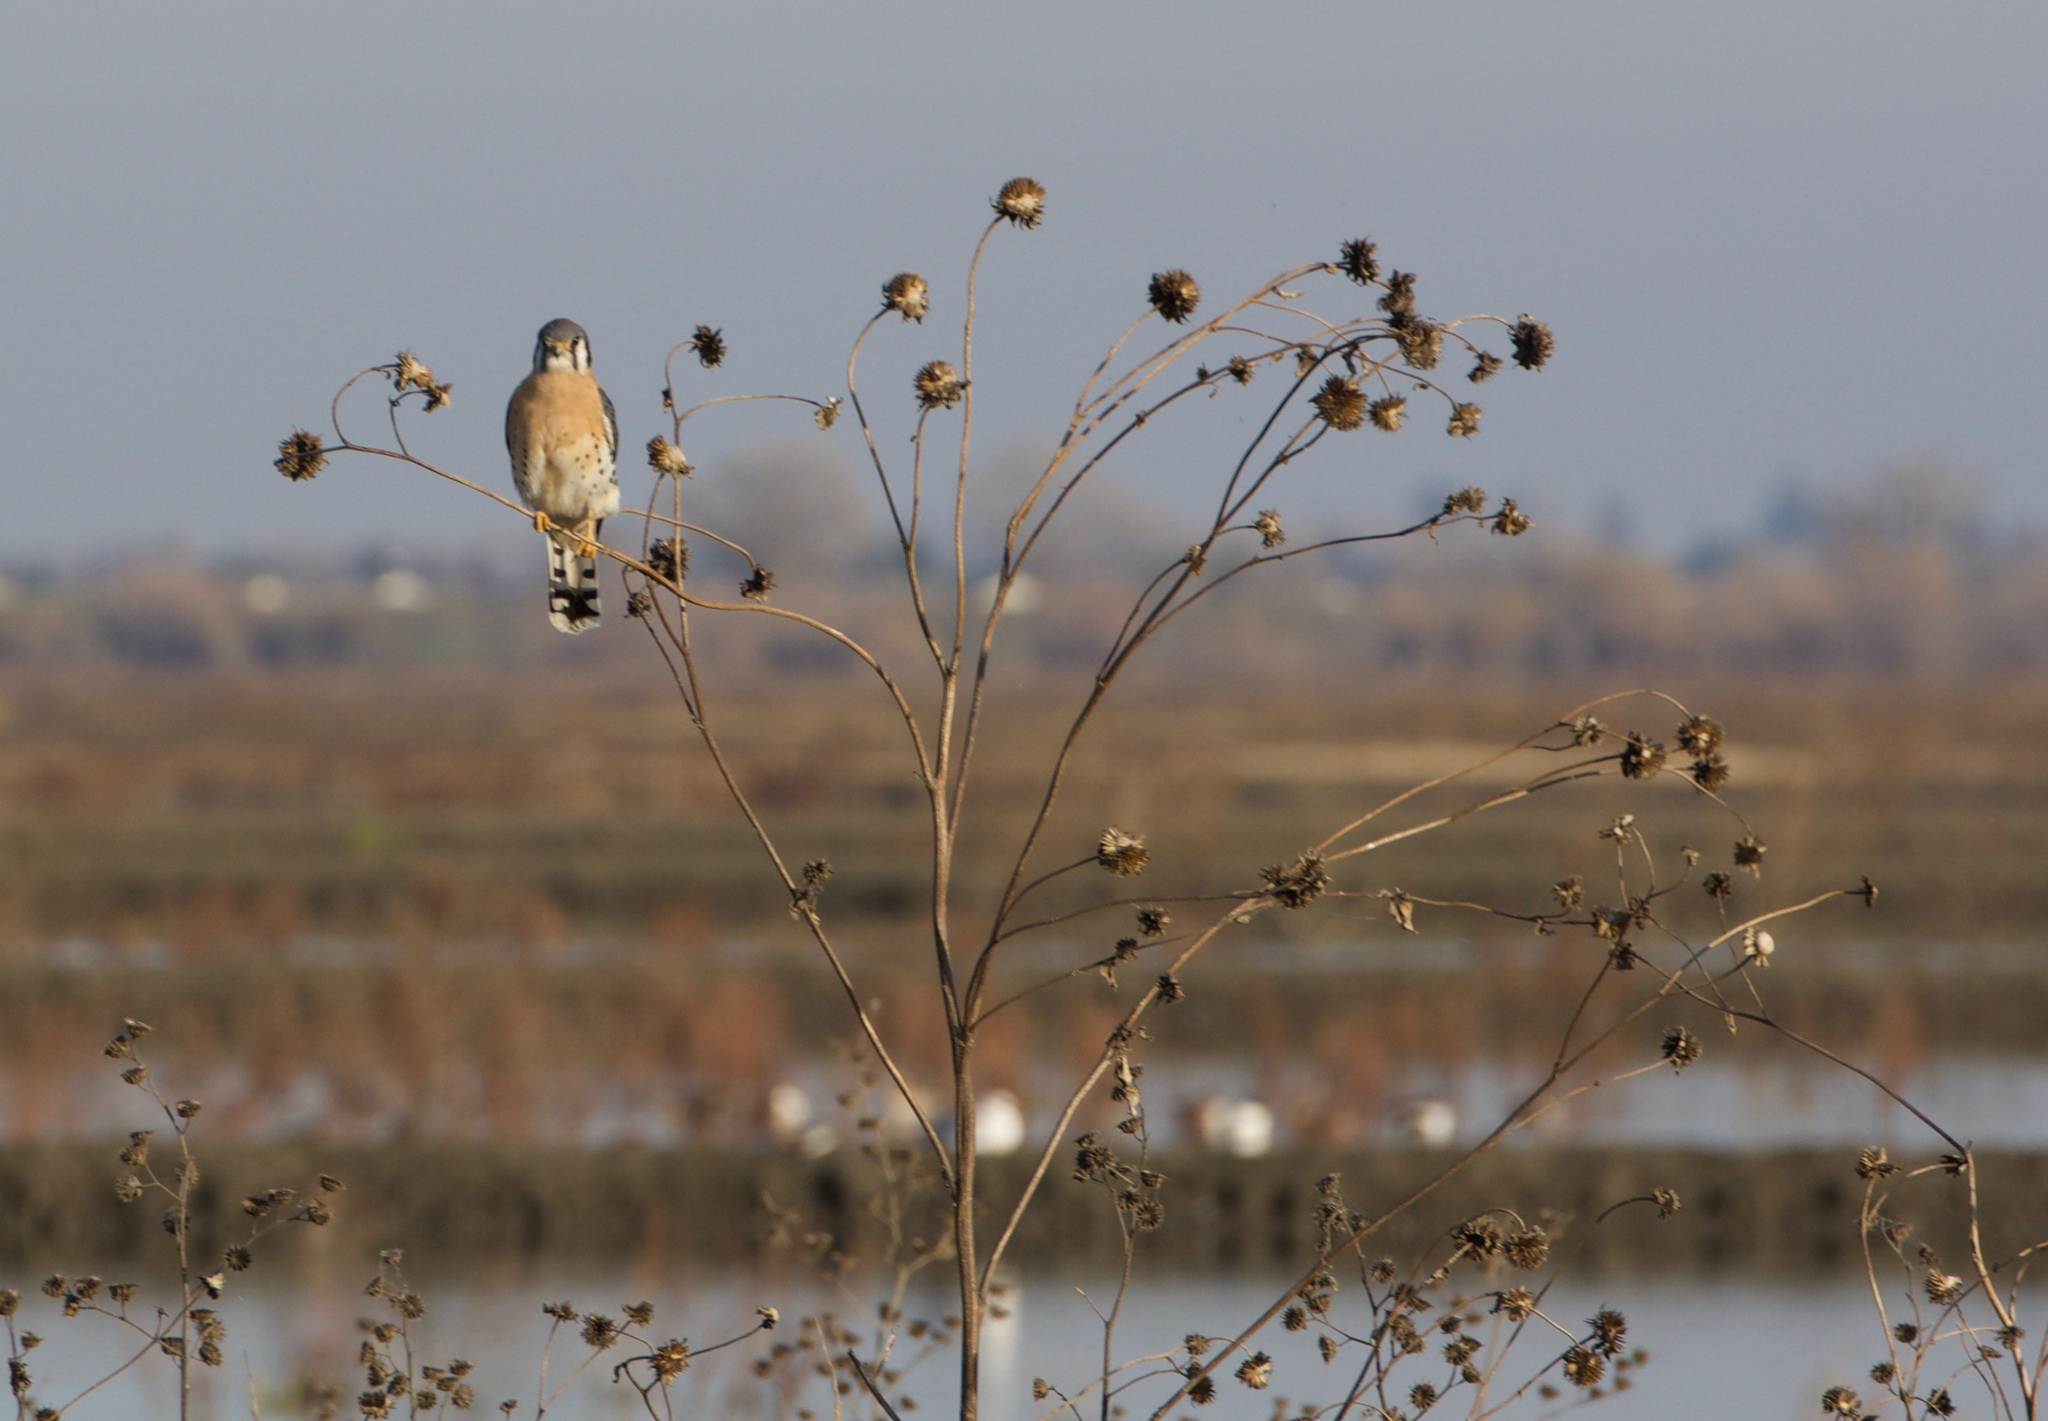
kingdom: Animalia
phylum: Chordata
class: Aves
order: Falconiformes
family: Falconidae
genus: Falco
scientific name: Falco sparverius
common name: American kestrel
